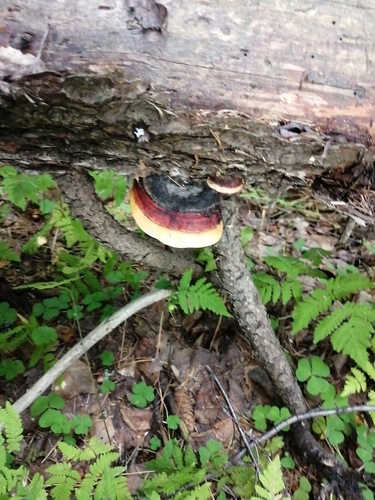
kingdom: Fungi
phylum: Basidiomycota
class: Agaricomycetes
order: Polyporales
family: Fomitopsidaceae
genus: Fomitopsis
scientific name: Fomitopsis pinicola
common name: Red-belted bracket
